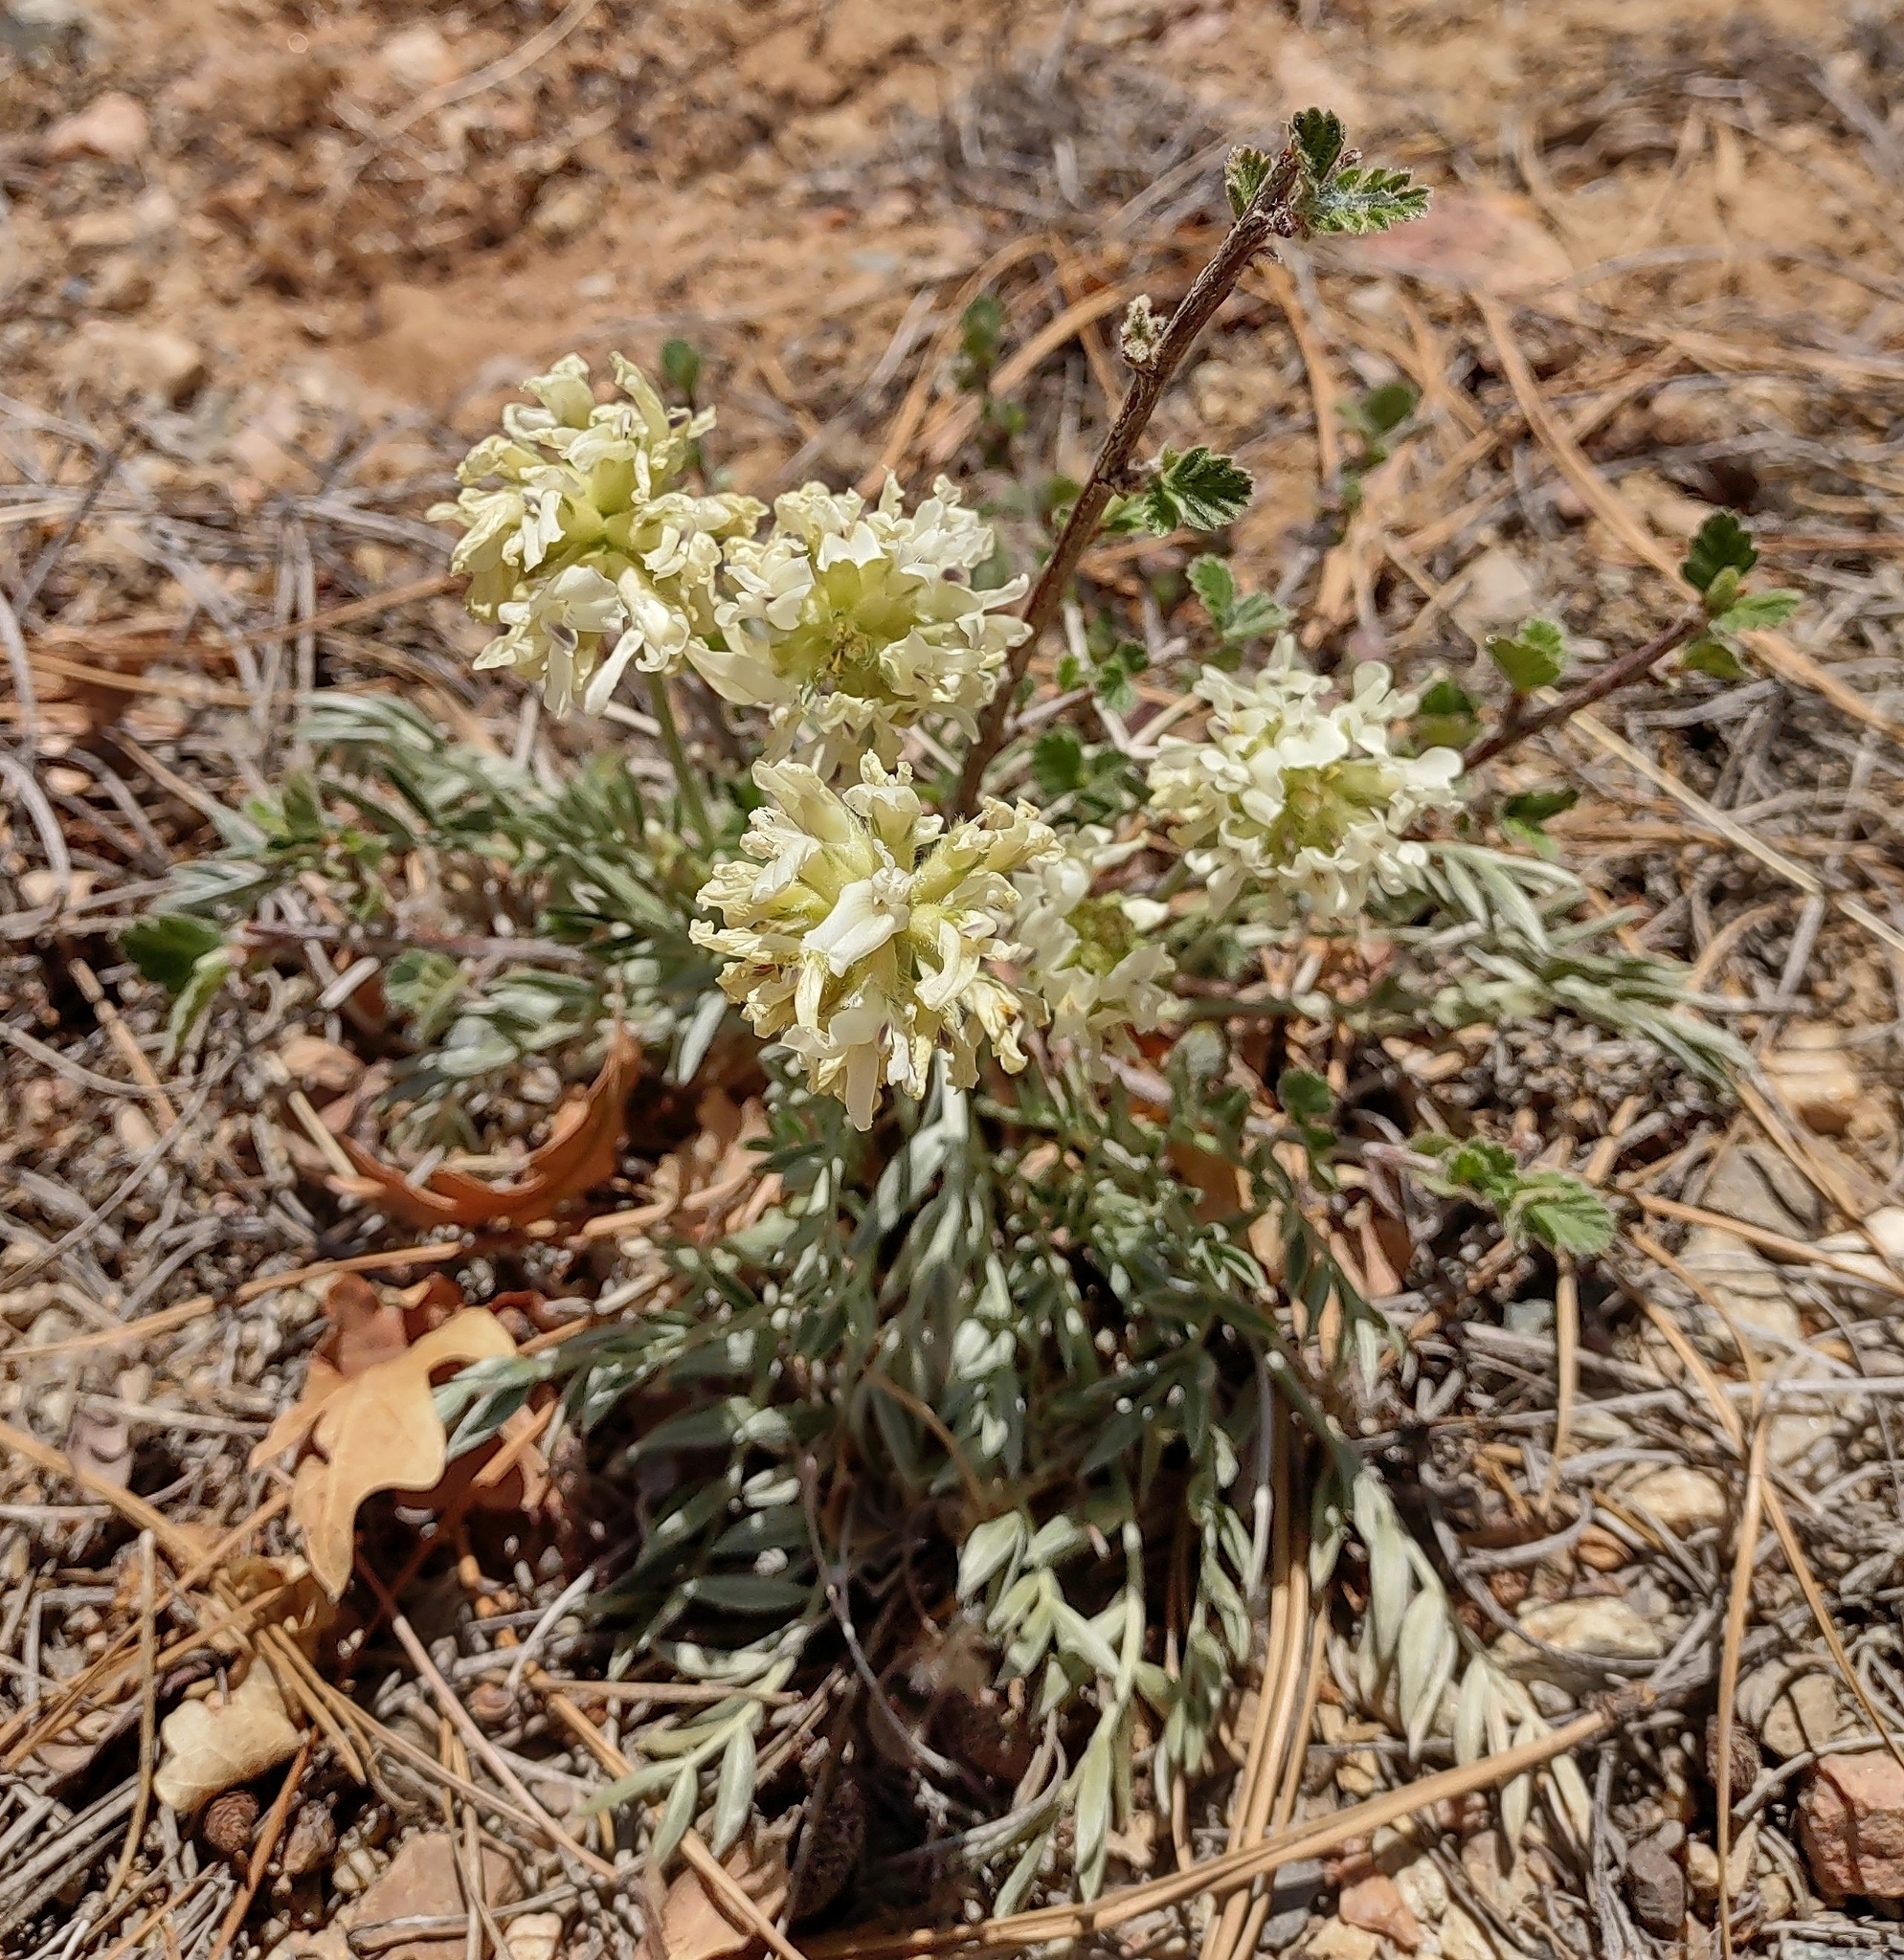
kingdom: Plantae
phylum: Tracheophyta
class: Magnoliopsida
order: Fabales
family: Fabaceae
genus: Oxytropis
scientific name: Oxytropis sericea
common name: Silky locoweed
